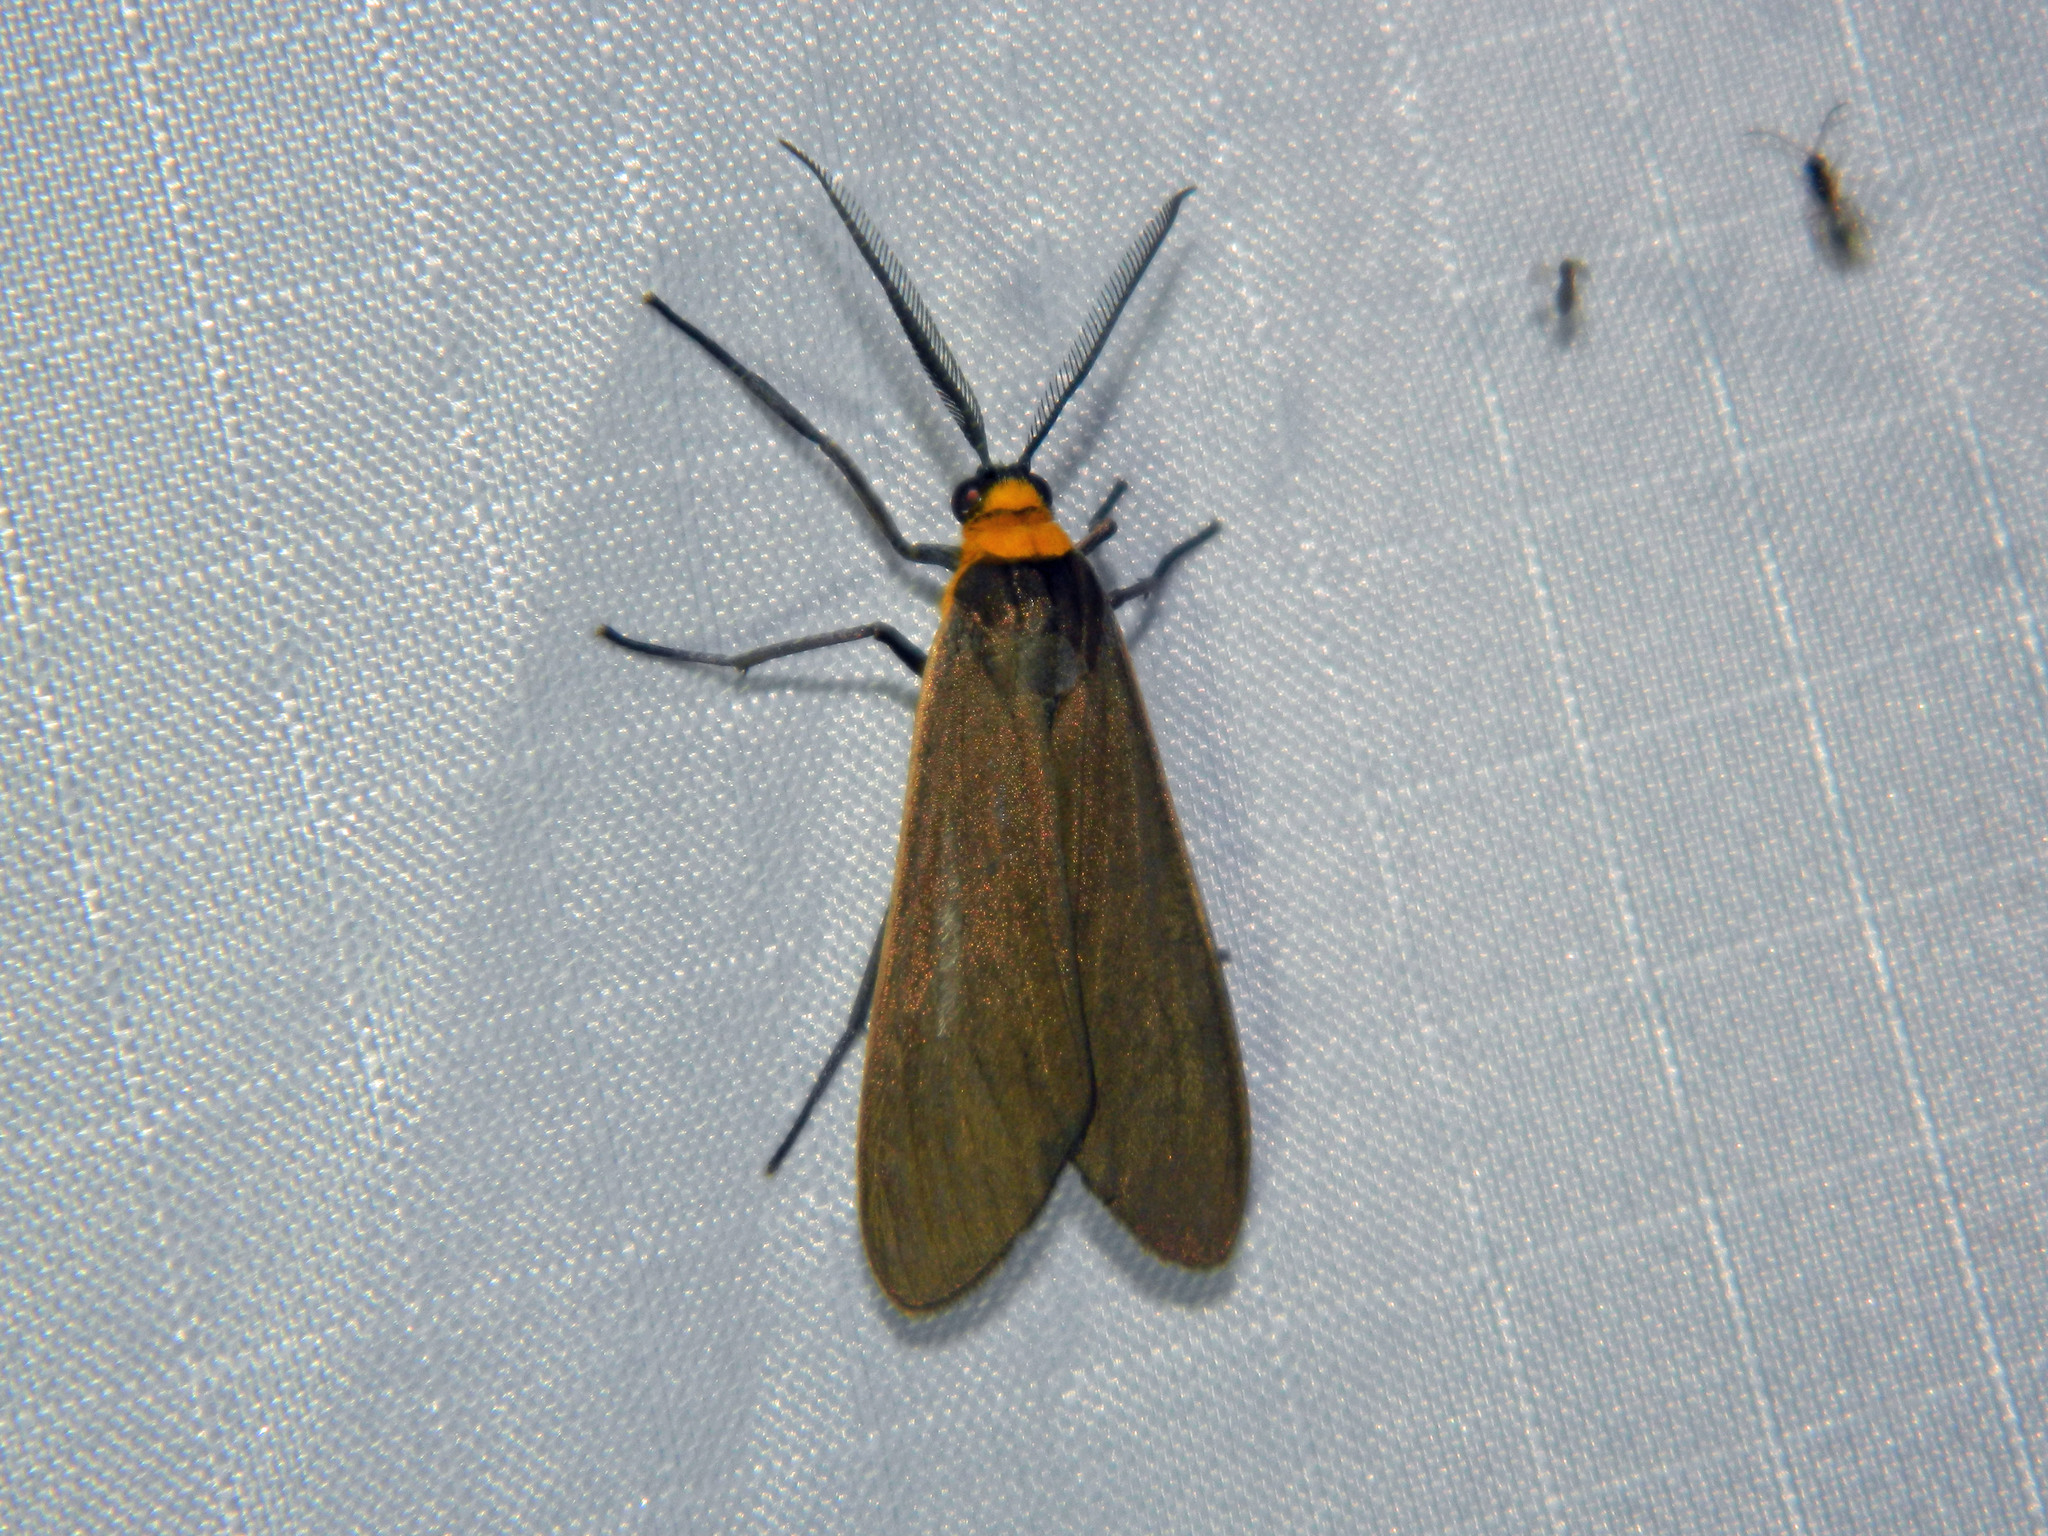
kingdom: Animalia
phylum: Arthropoda
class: Insecta
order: Lepidoptera
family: Erebidae
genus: Cisseps
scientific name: Cisseps fulvicollis
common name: Yellow-collared scape moth
